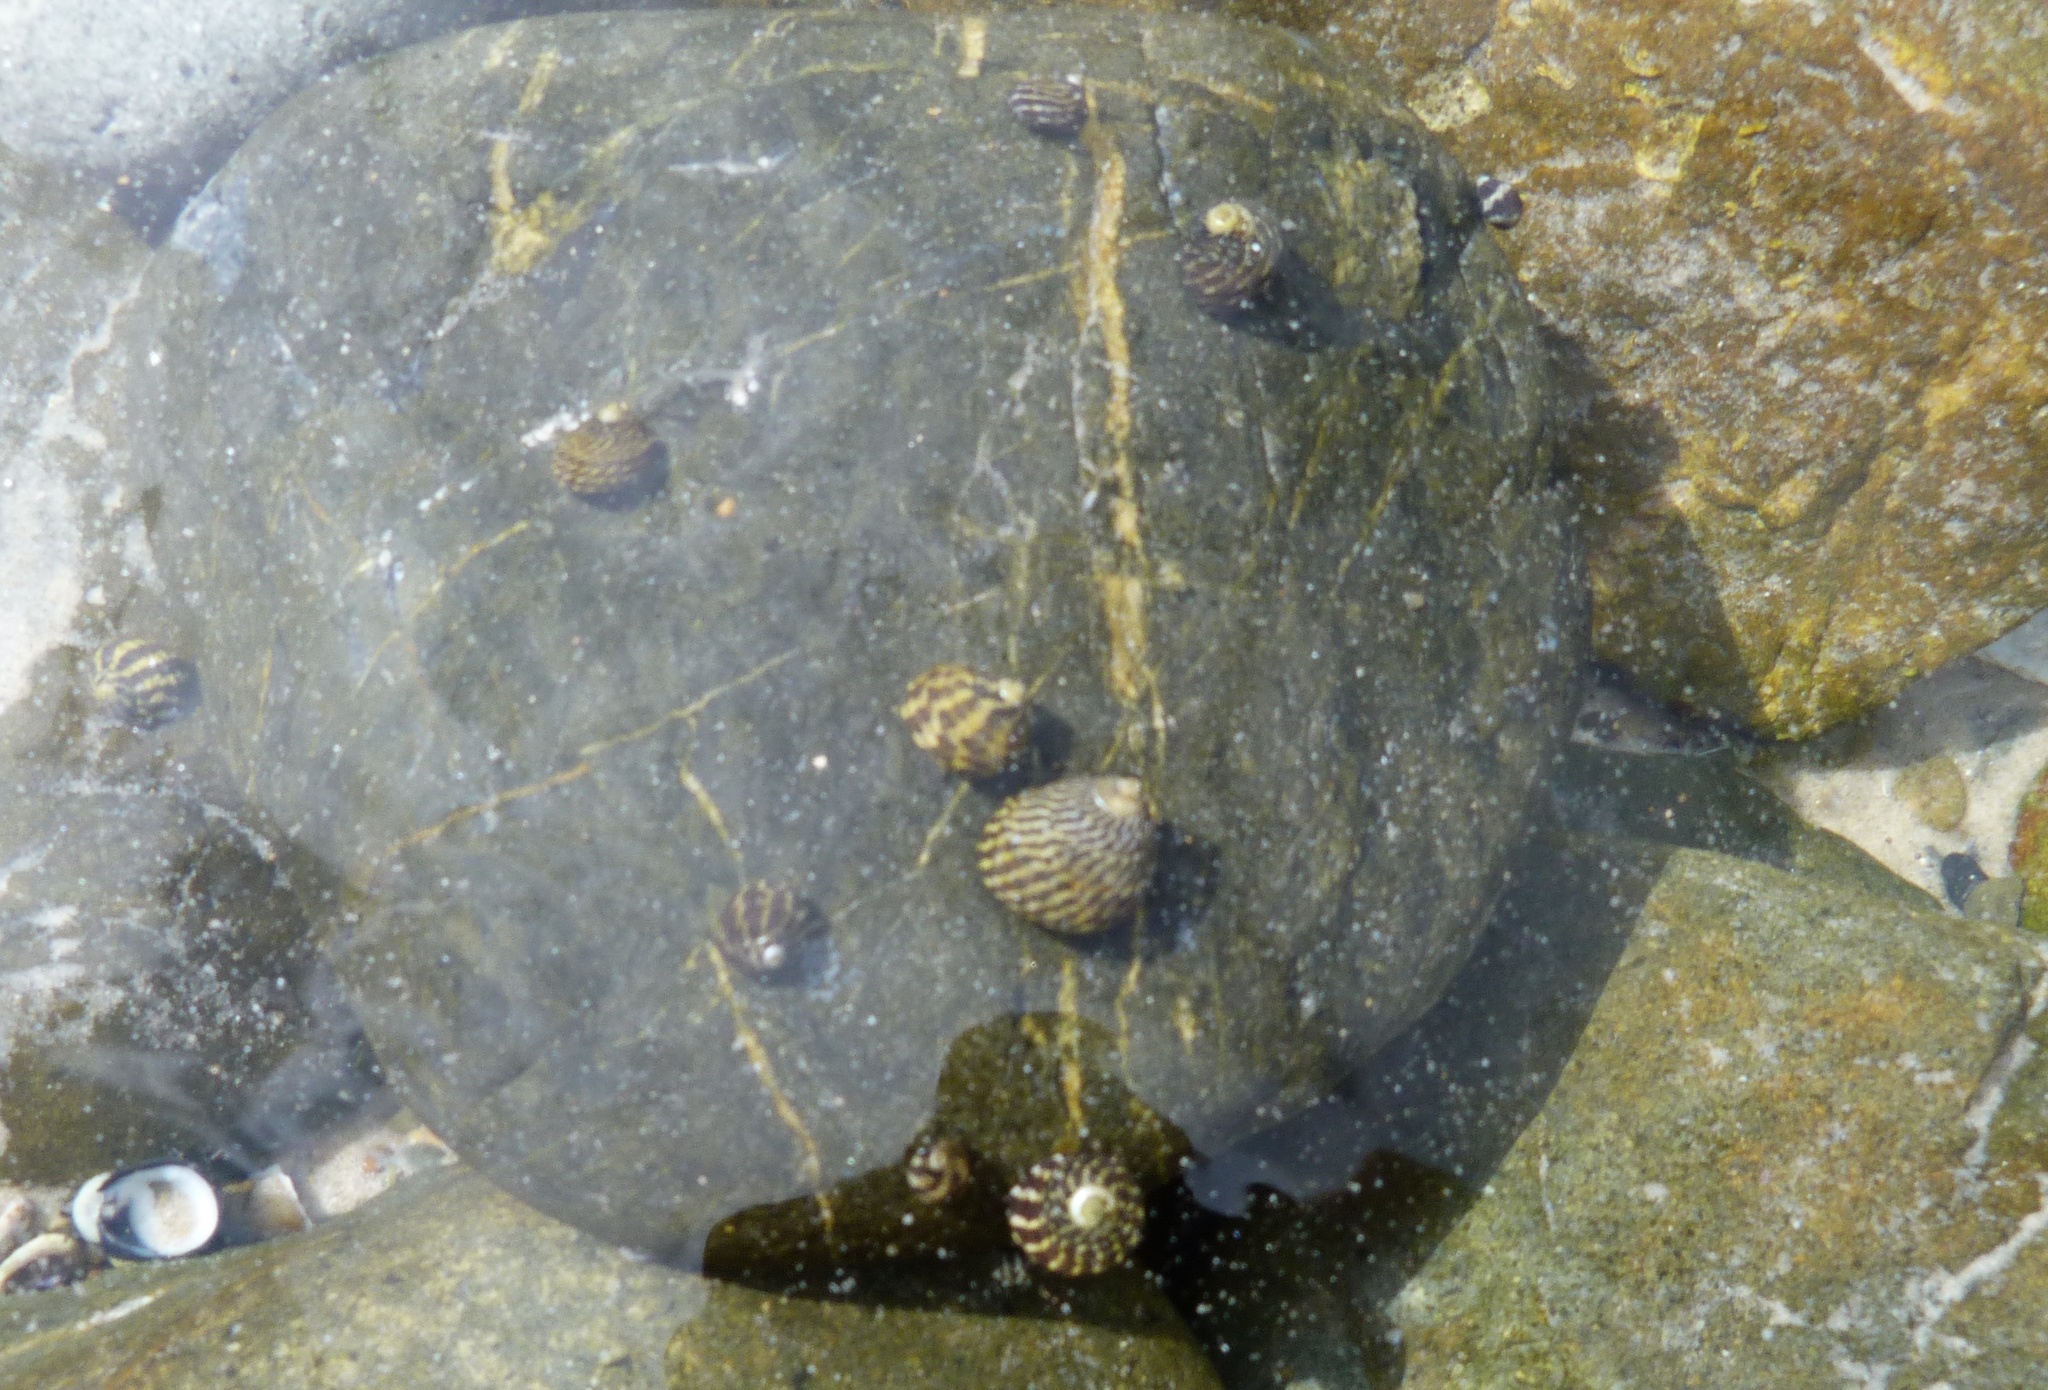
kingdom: Animalia
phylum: Mollusca
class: Gastropoda
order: Trochida
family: Trochidae
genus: Austrocochlea
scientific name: Austrocochlea porcata
